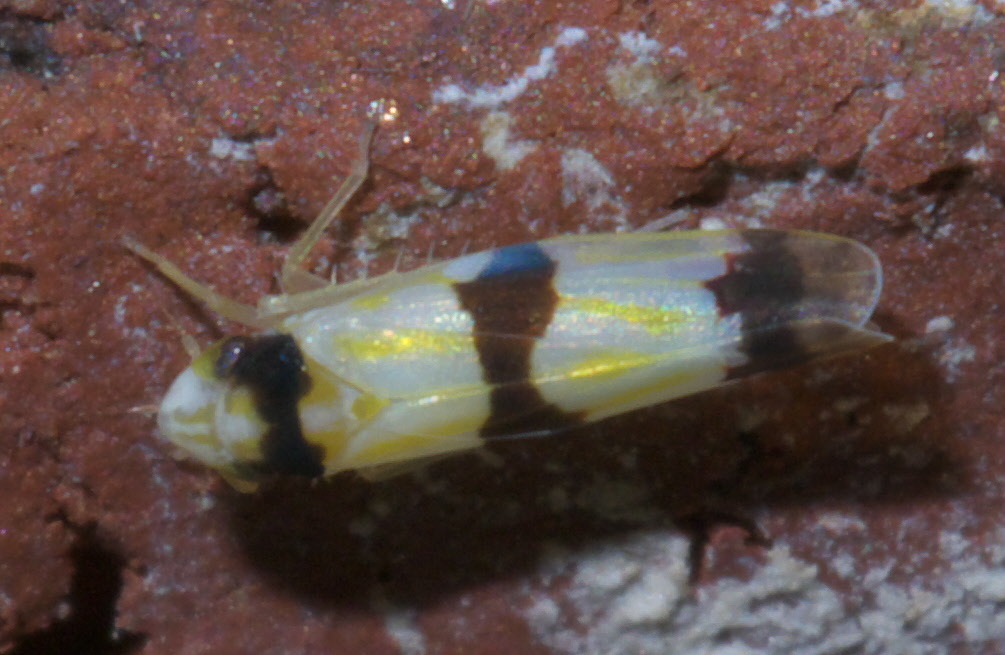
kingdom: Animalia
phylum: Arthropoda
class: Insecta
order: Hemiptera
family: Cicadellidae
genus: Erythroneura
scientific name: Erythroneura cymbium
